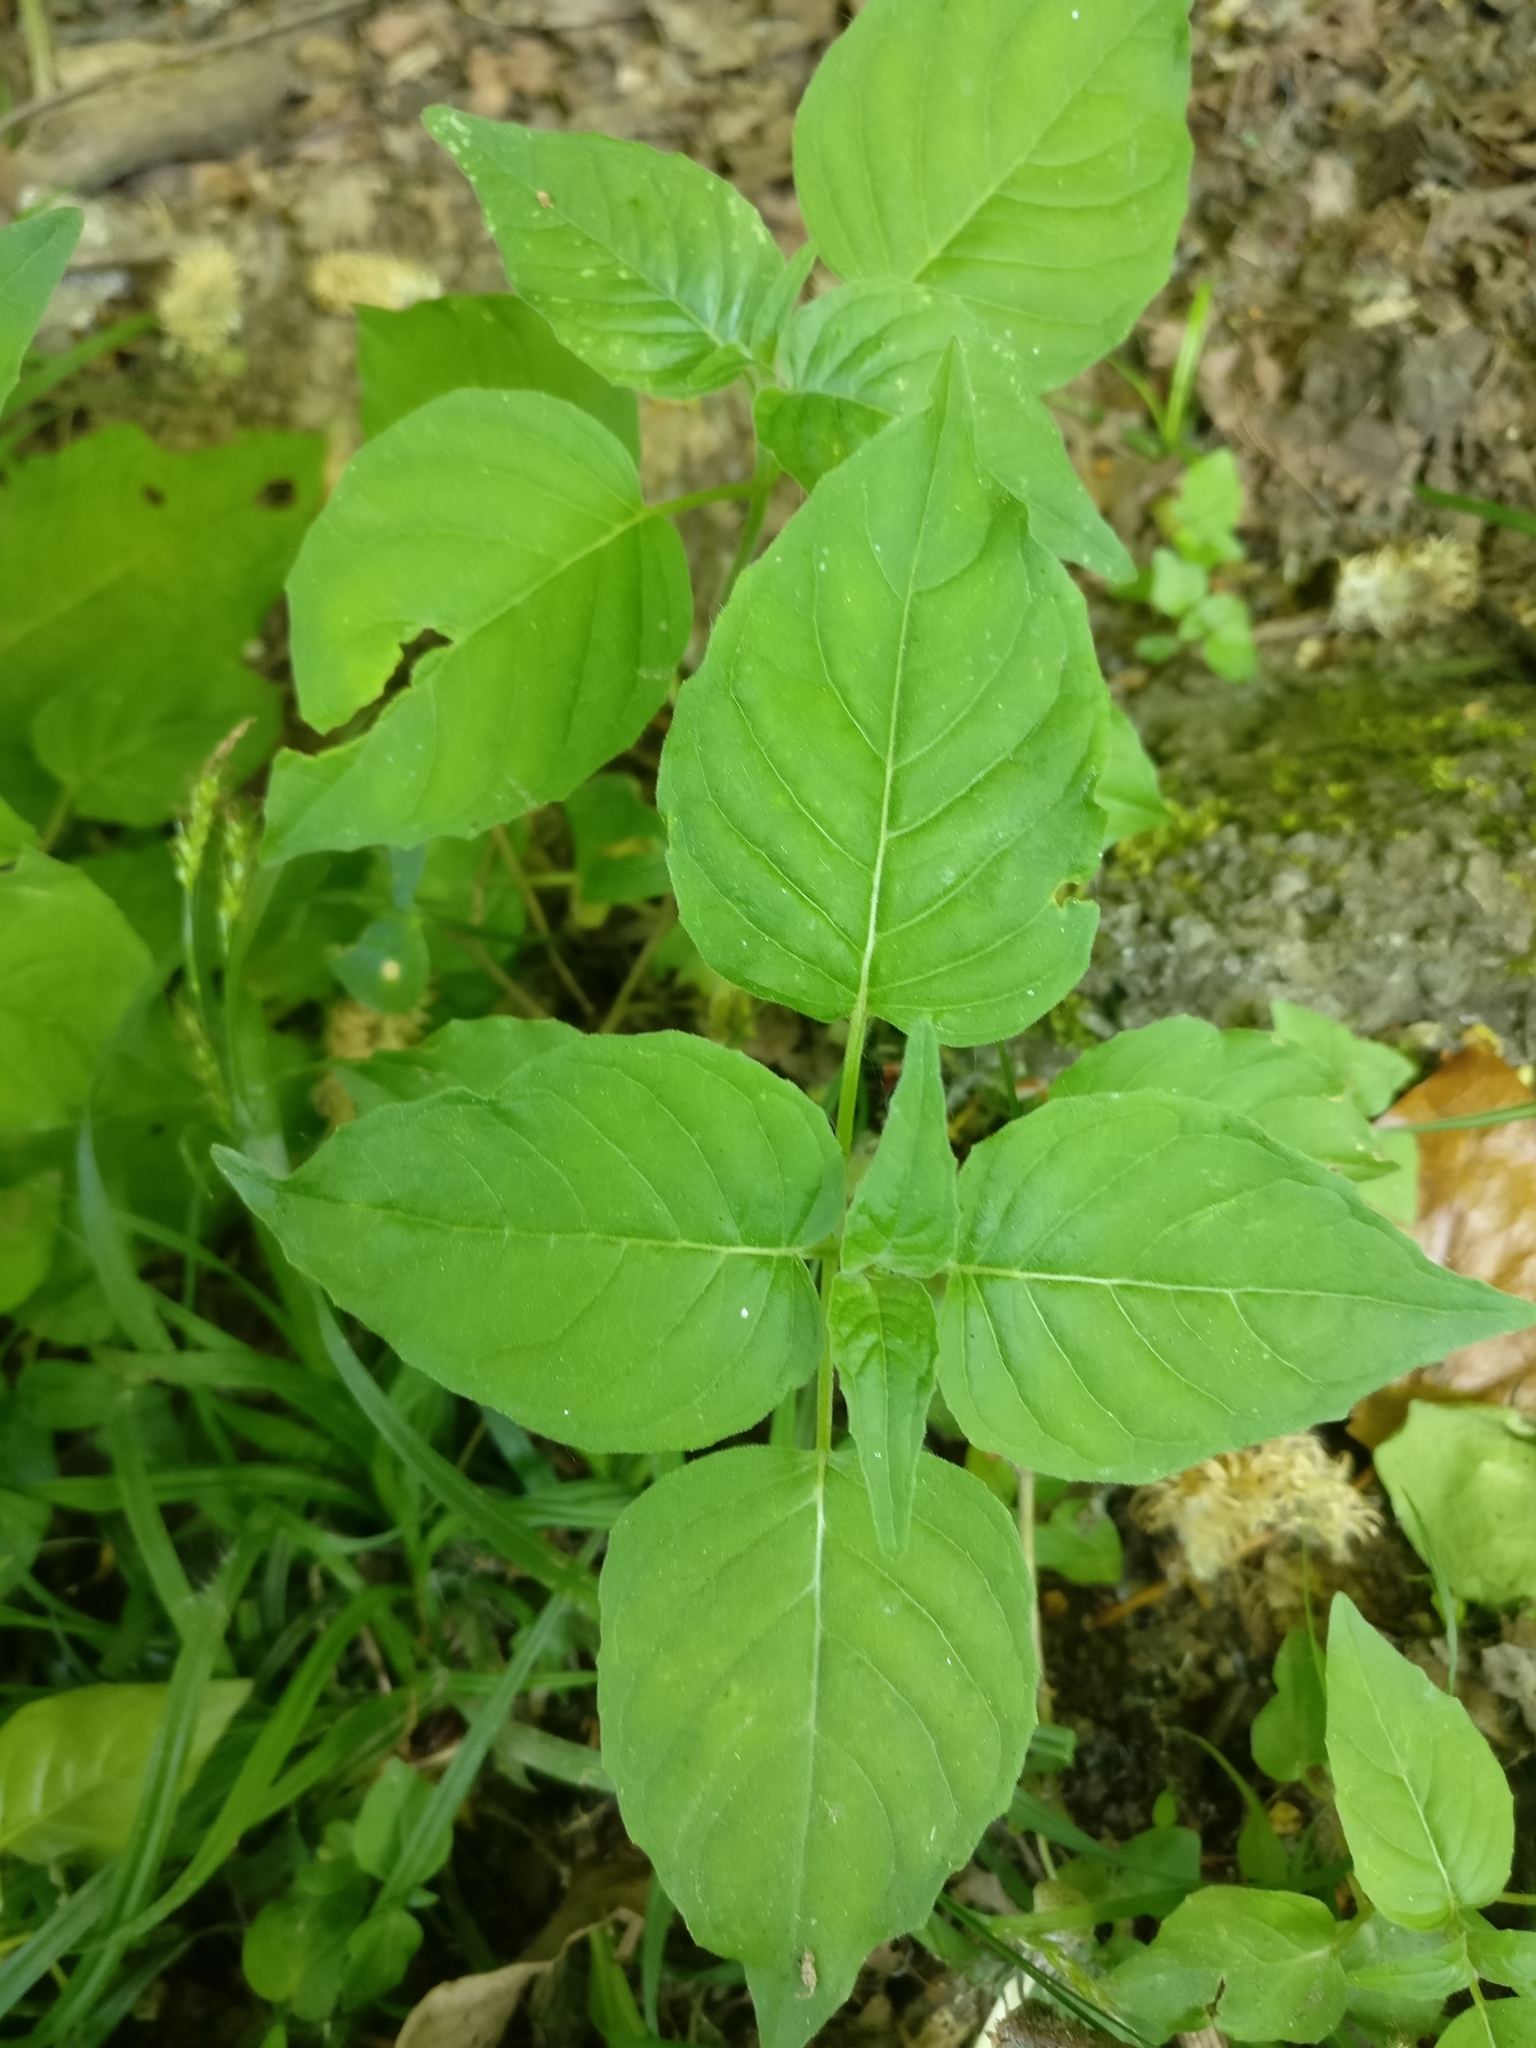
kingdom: Plantae
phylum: Tracheophyta
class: Magnoliopsida
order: Myrtales
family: Onagraceae
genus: Circaea
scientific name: Circaea lutetiana
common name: Enchanter's-nightshade
